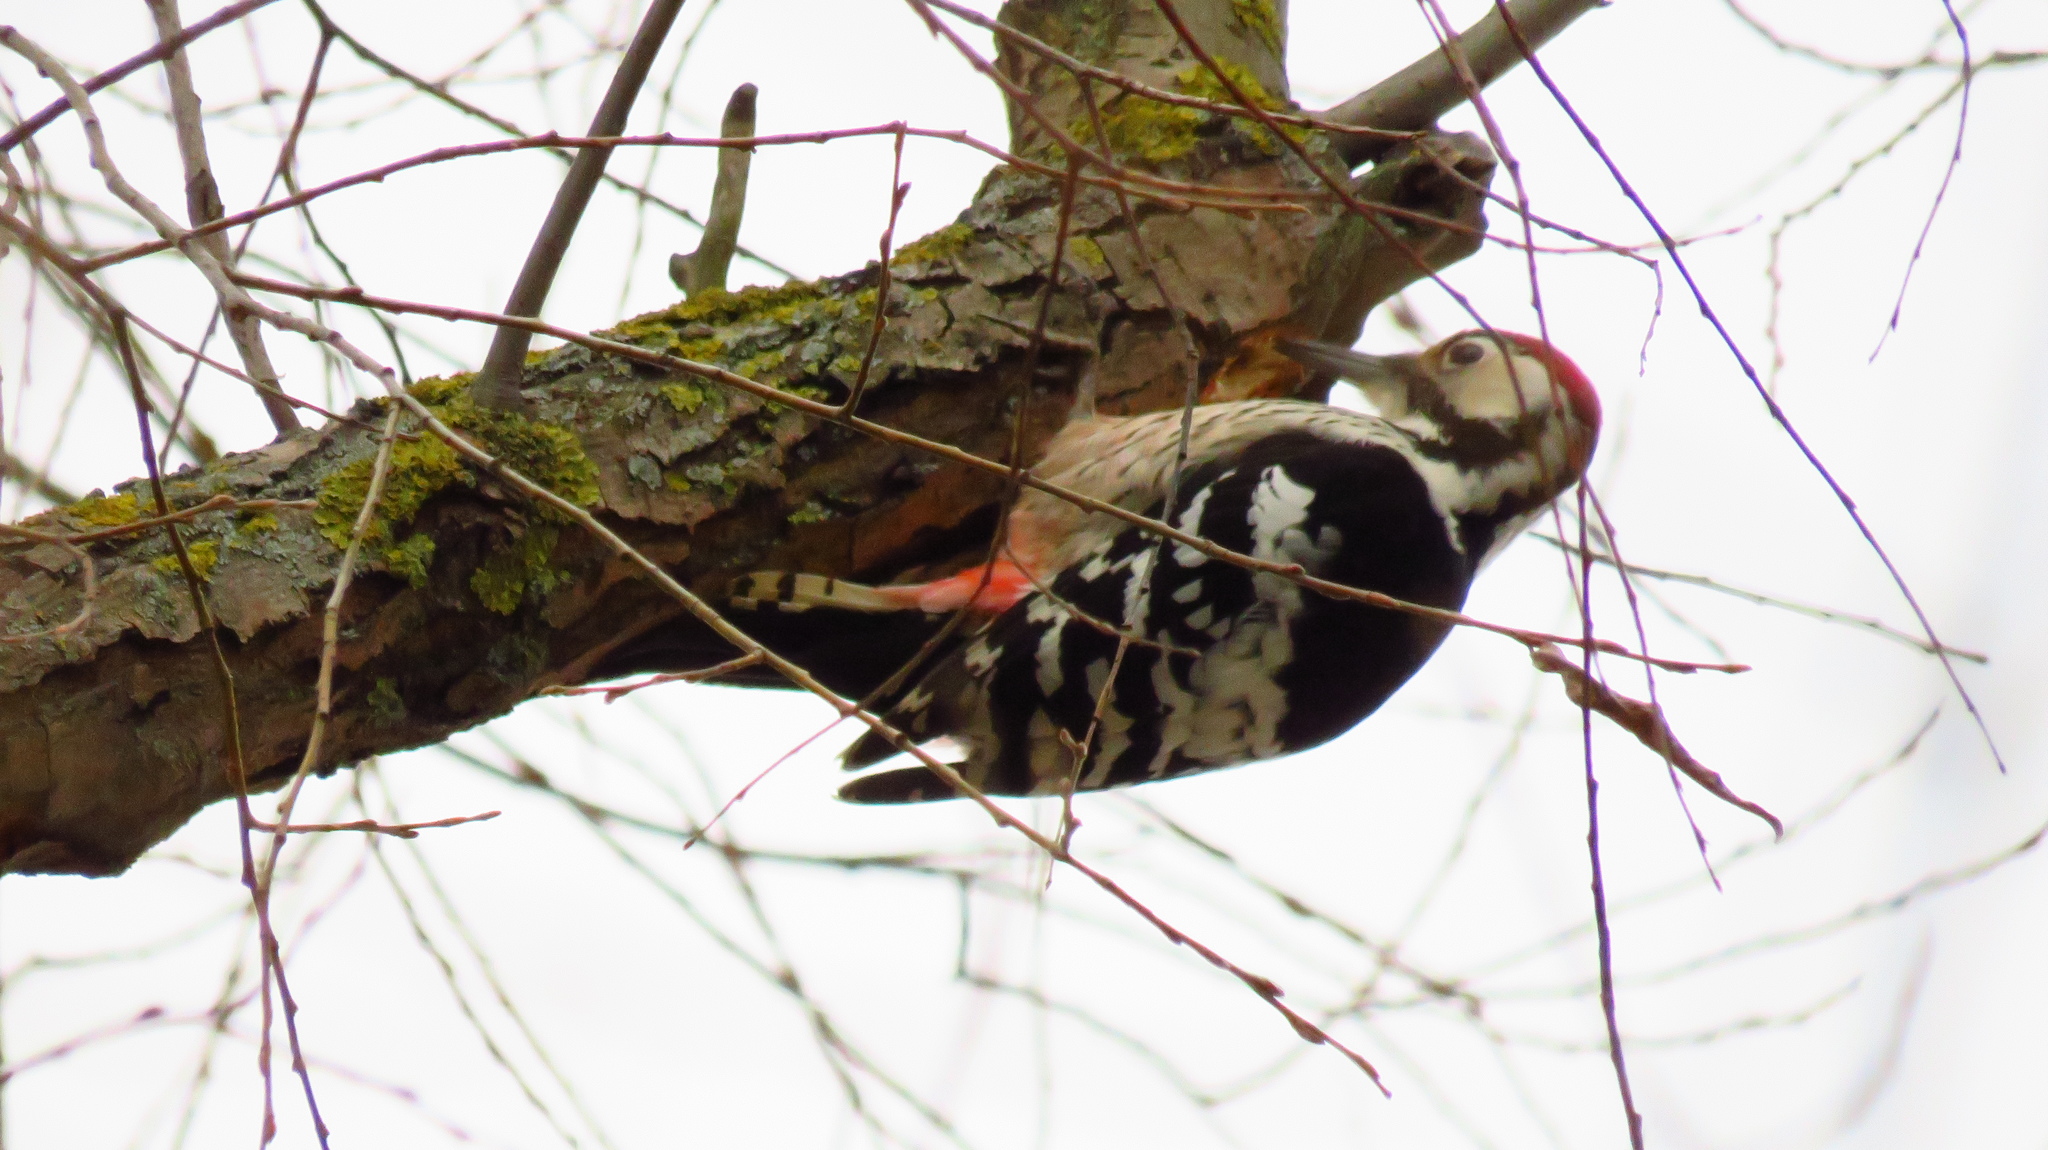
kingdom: Animalia
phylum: Chordata
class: Aves
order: Piciformes
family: Picidae
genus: Dendrocopos
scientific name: Dendrocopos leucotos
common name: White-backed woodpecker
